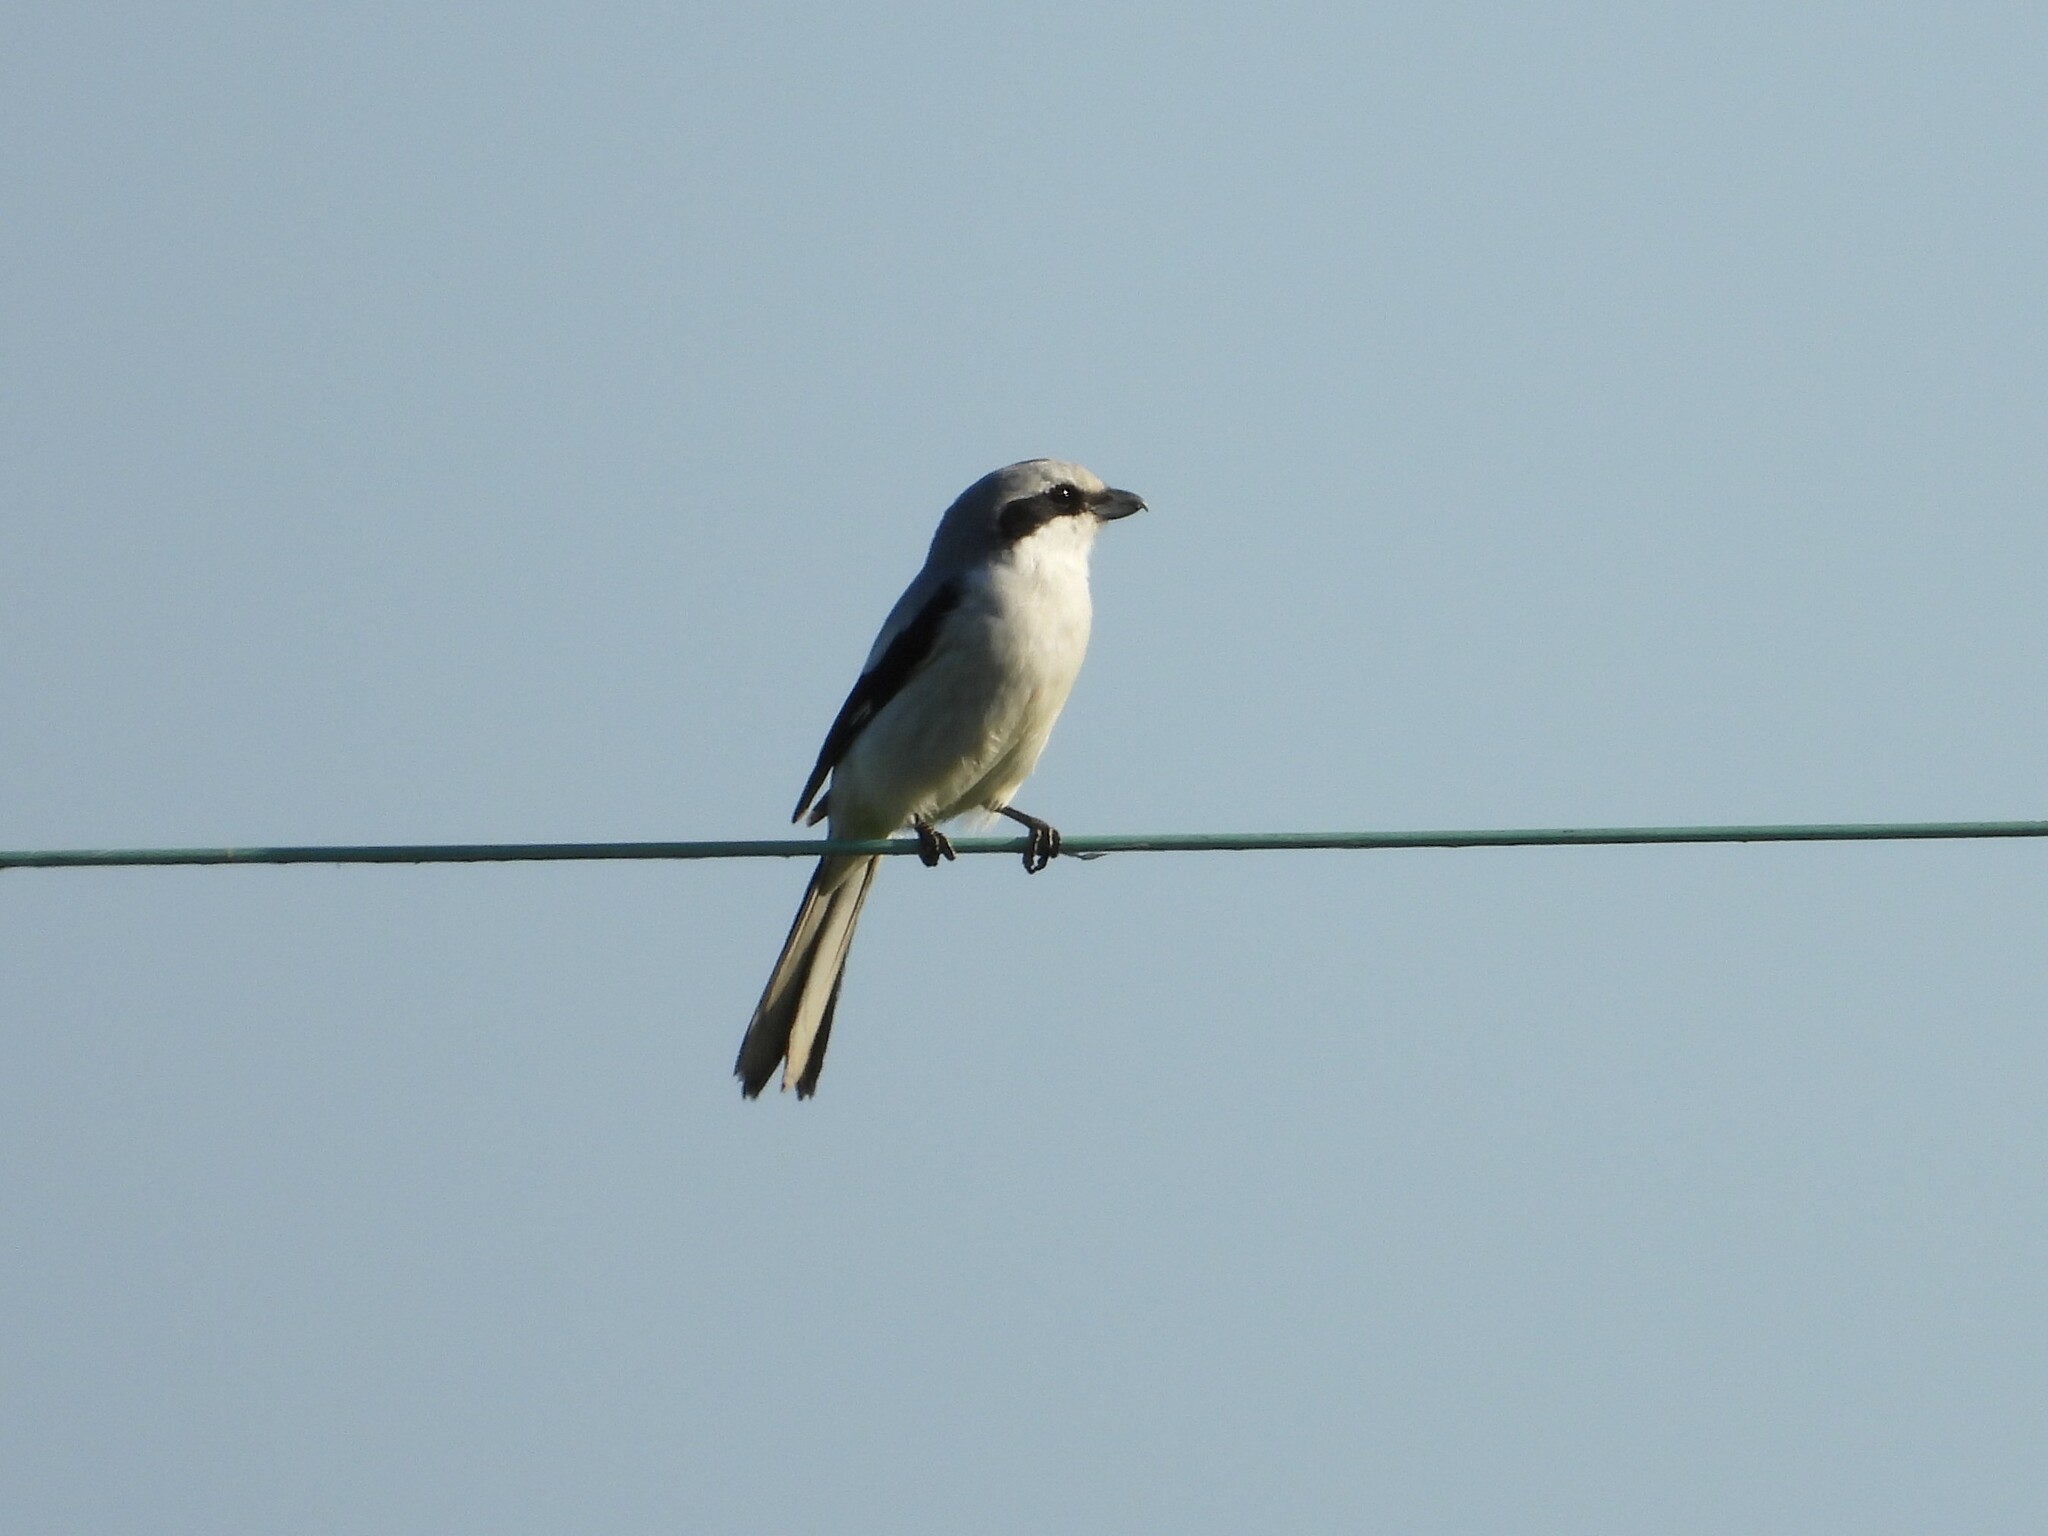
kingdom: Animalia
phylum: Chordata
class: Aves
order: Passeriformes
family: Laniidae
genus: Lanius
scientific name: Lanius excubitor
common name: Great grey shrike
